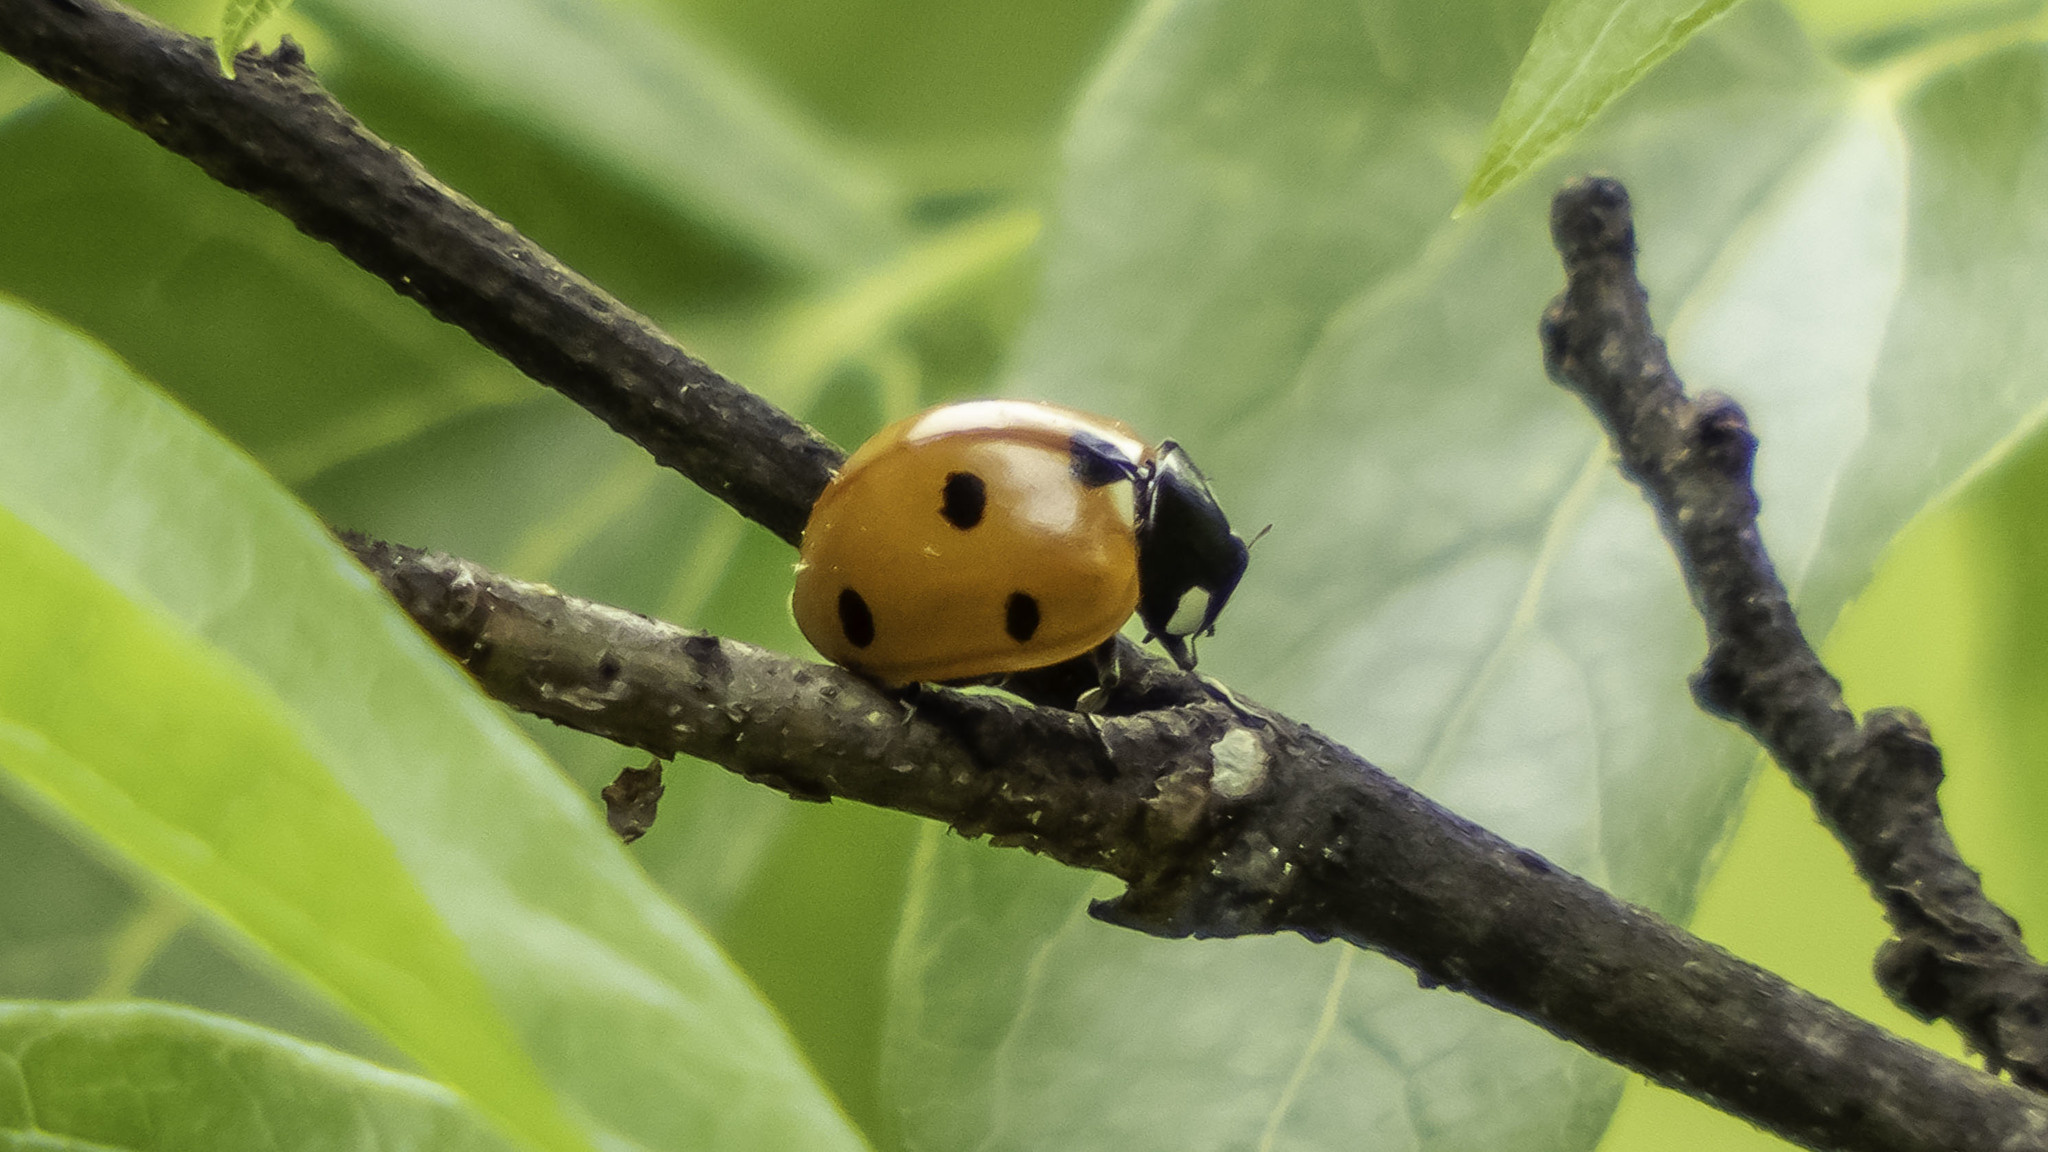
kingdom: Animalia
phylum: Arthropoda
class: Insecta
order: Coleoptera
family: Coccinellidae
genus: Coccinella
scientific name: Coccinella septempunctata
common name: Sevenspotted lady beetle
